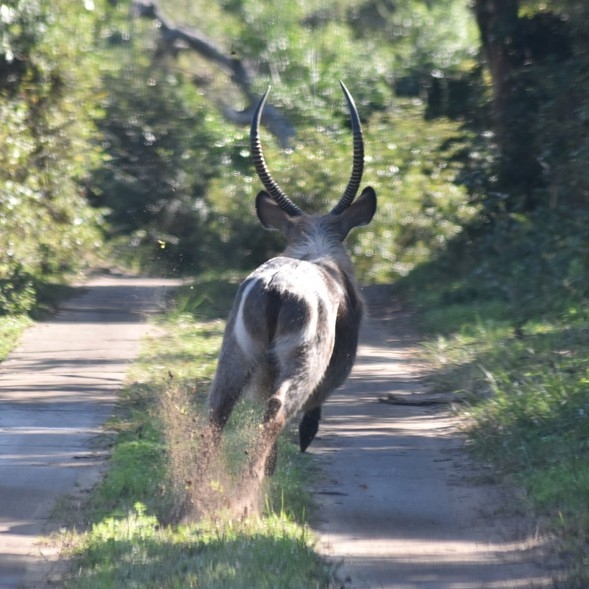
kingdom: Animalia
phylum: Chordata
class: Mammalia
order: Artiodactyla
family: Bovidae
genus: Kobus
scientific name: Kobus ellipsiprymnus
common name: Waterbuck
